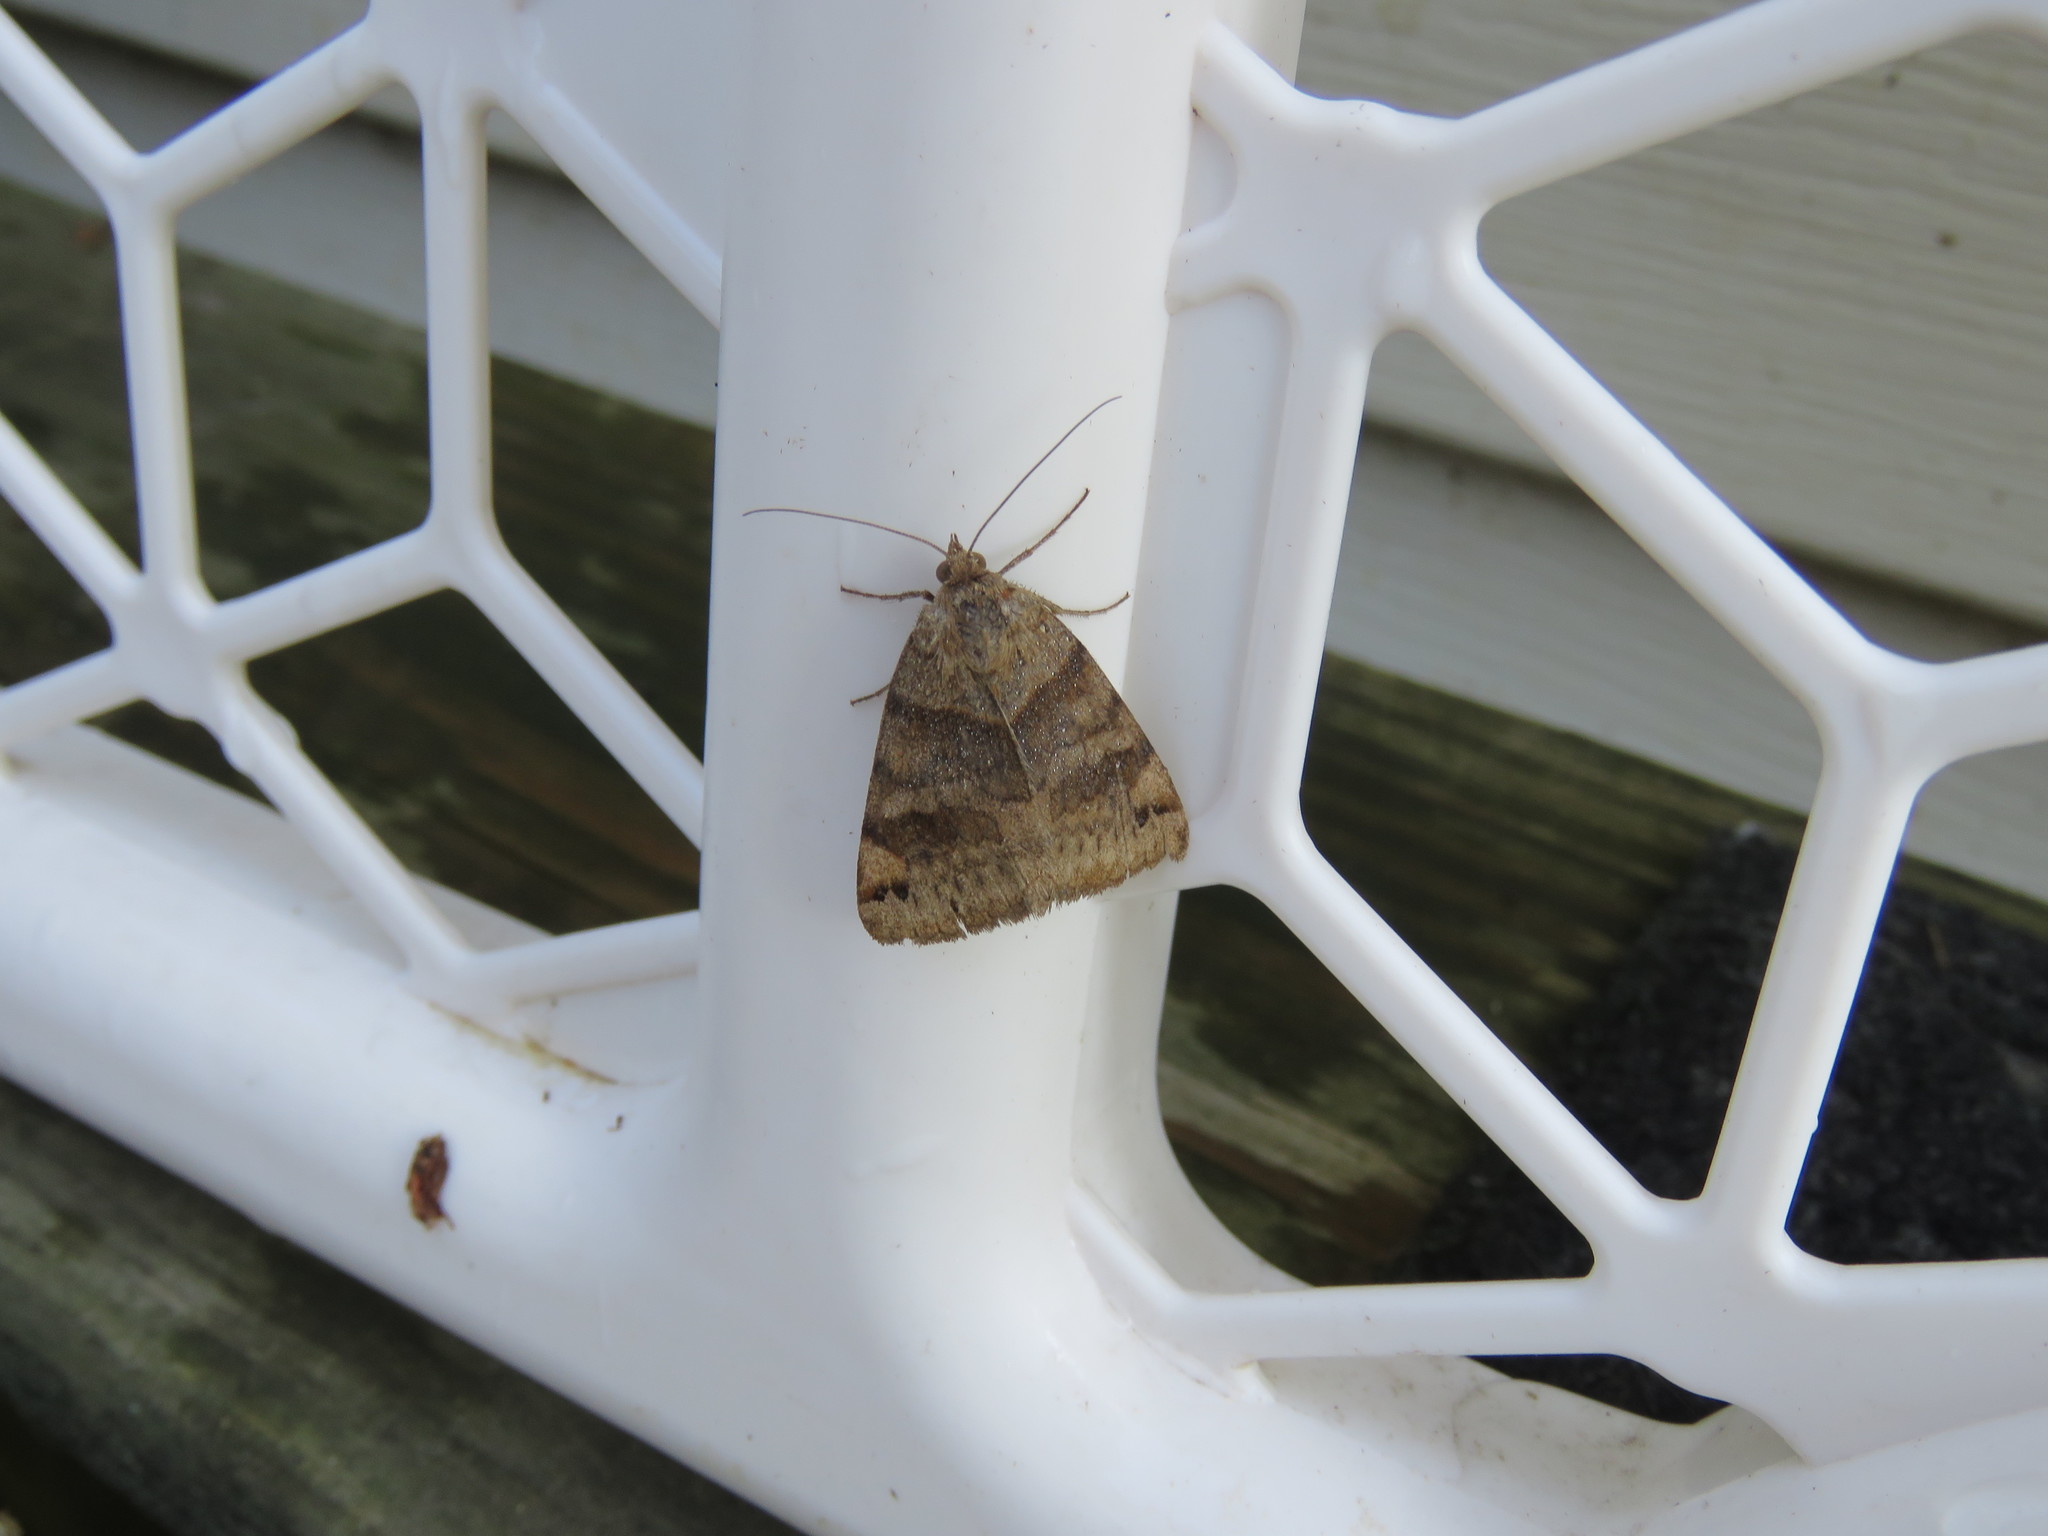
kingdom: Animalia
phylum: Arthropoda
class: Insecta
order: Lepidoptera
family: Erebidae
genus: Caenurgina
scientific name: Caenurgina crassiuscula
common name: Double-barred
